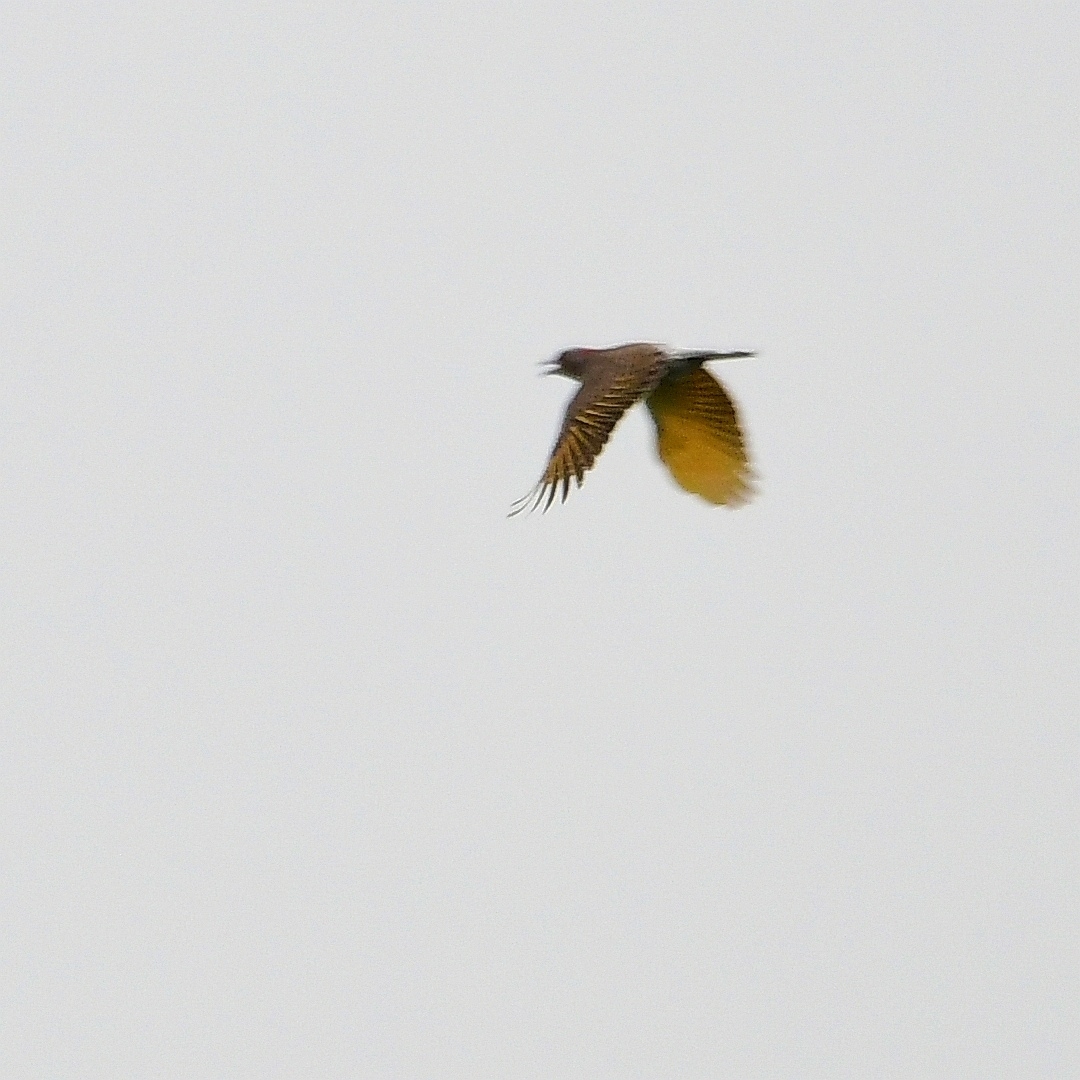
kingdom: Animalia
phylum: Chordata
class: Aves
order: Piciformes
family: Picidae
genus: Colaptes
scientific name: Colaptes auratus
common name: Northern flicker
